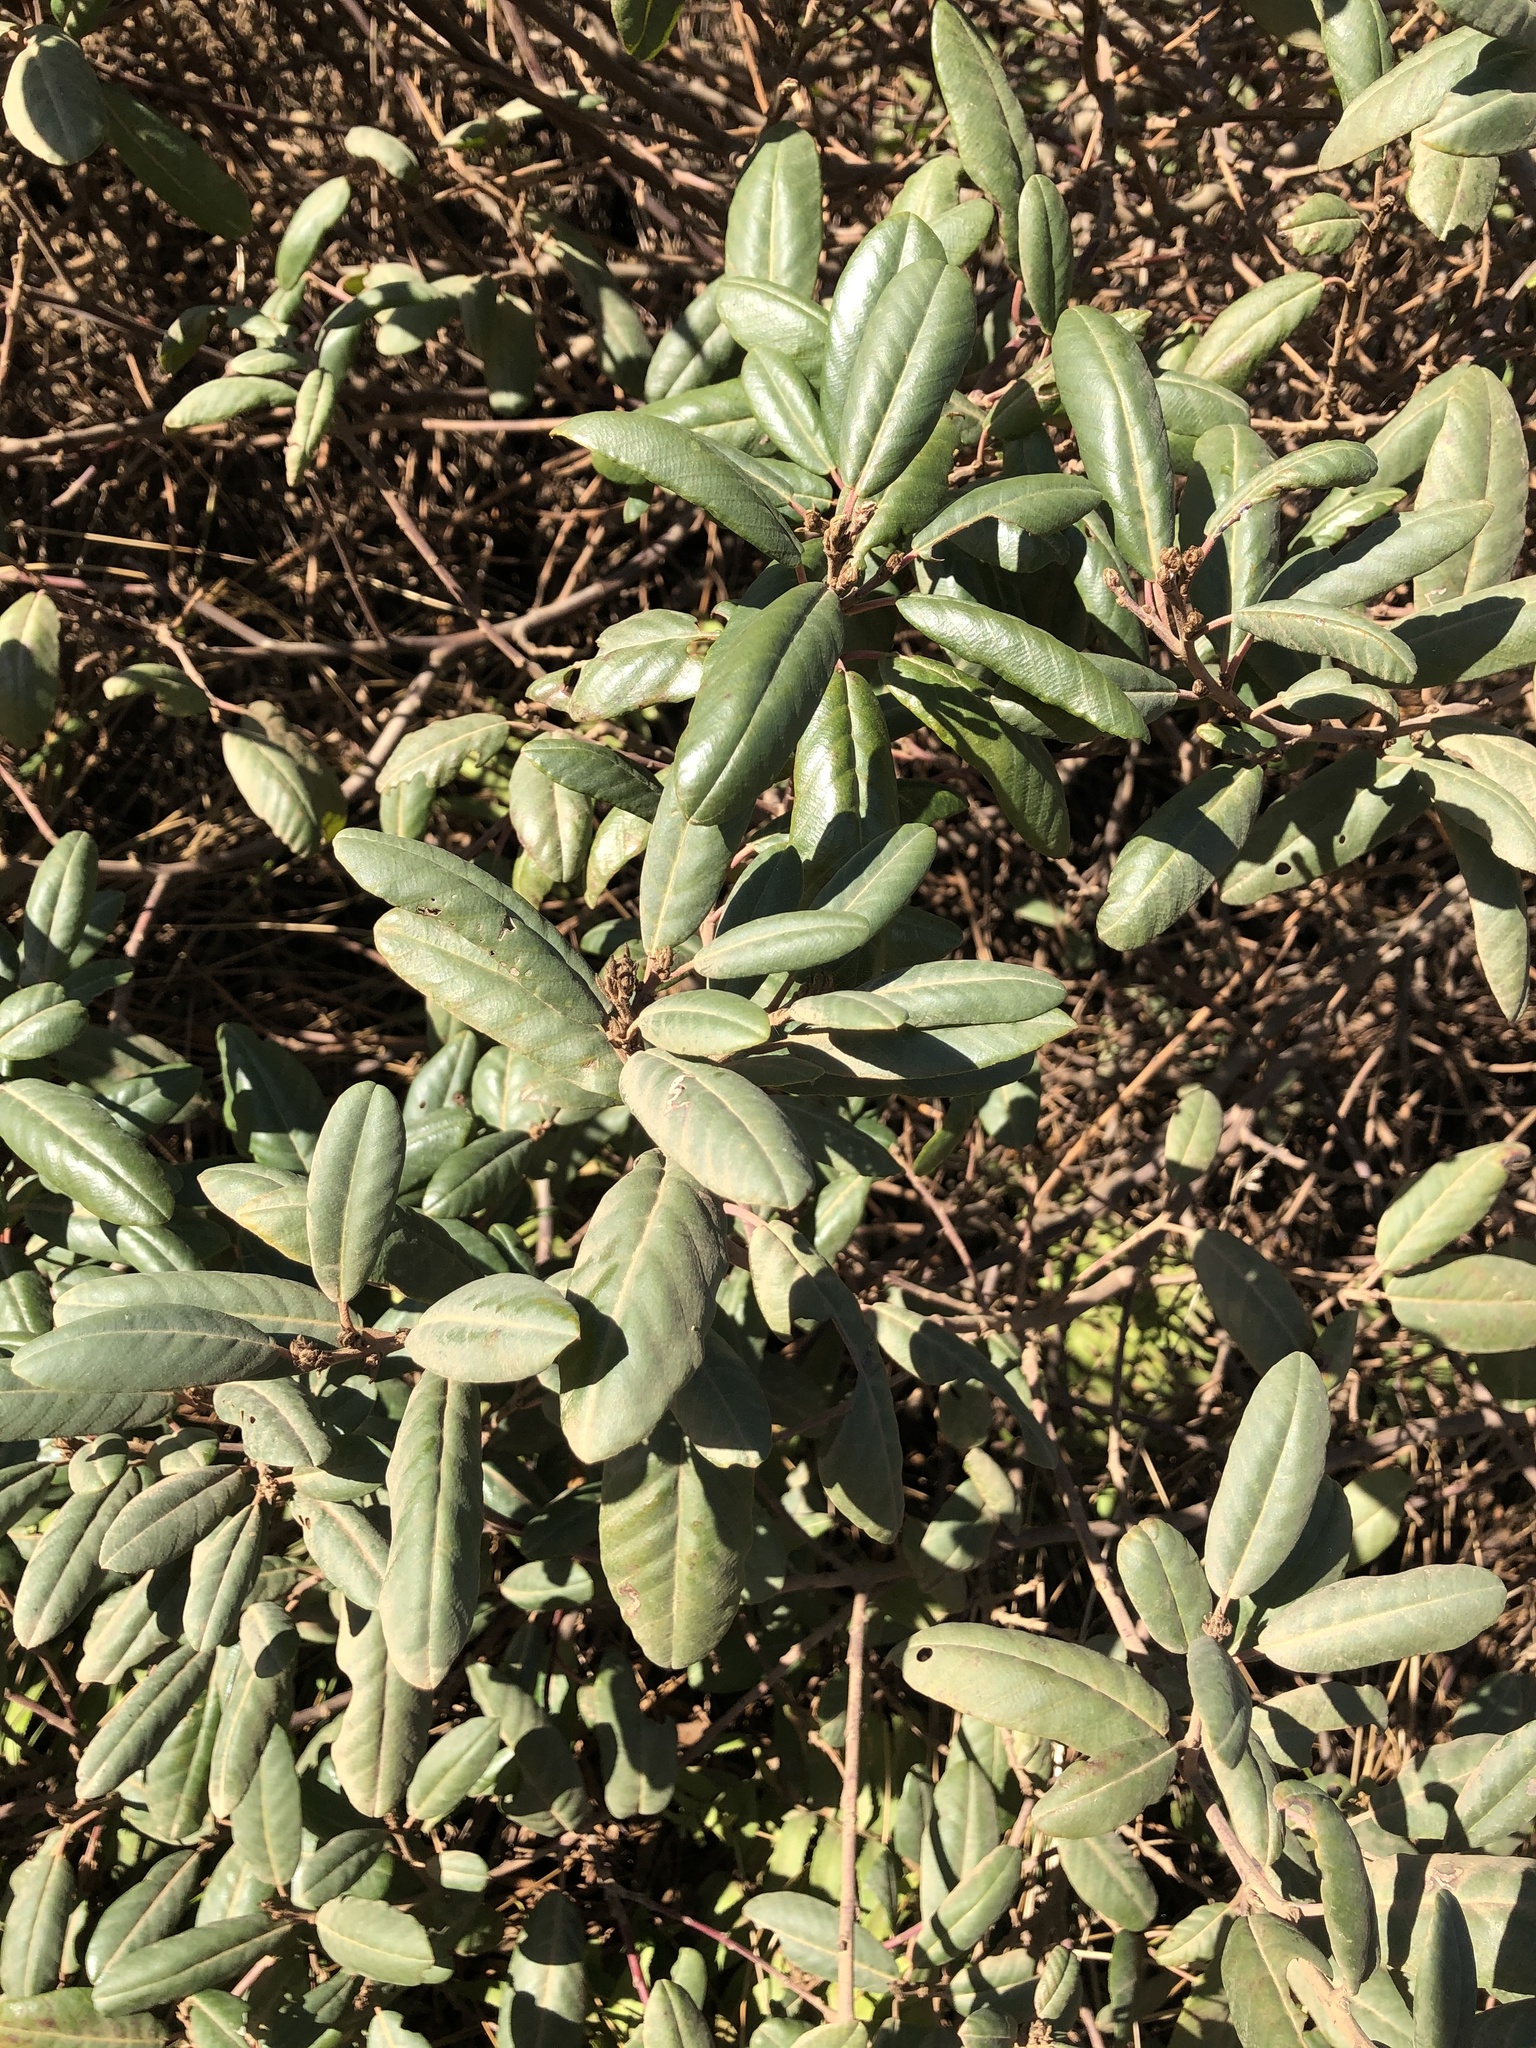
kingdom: Plantae
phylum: Tracheophyta
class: Magnoliopsida
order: Rosales
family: Rhamnaceae
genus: Frangula
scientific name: Frangula californica
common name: California buckthorn
